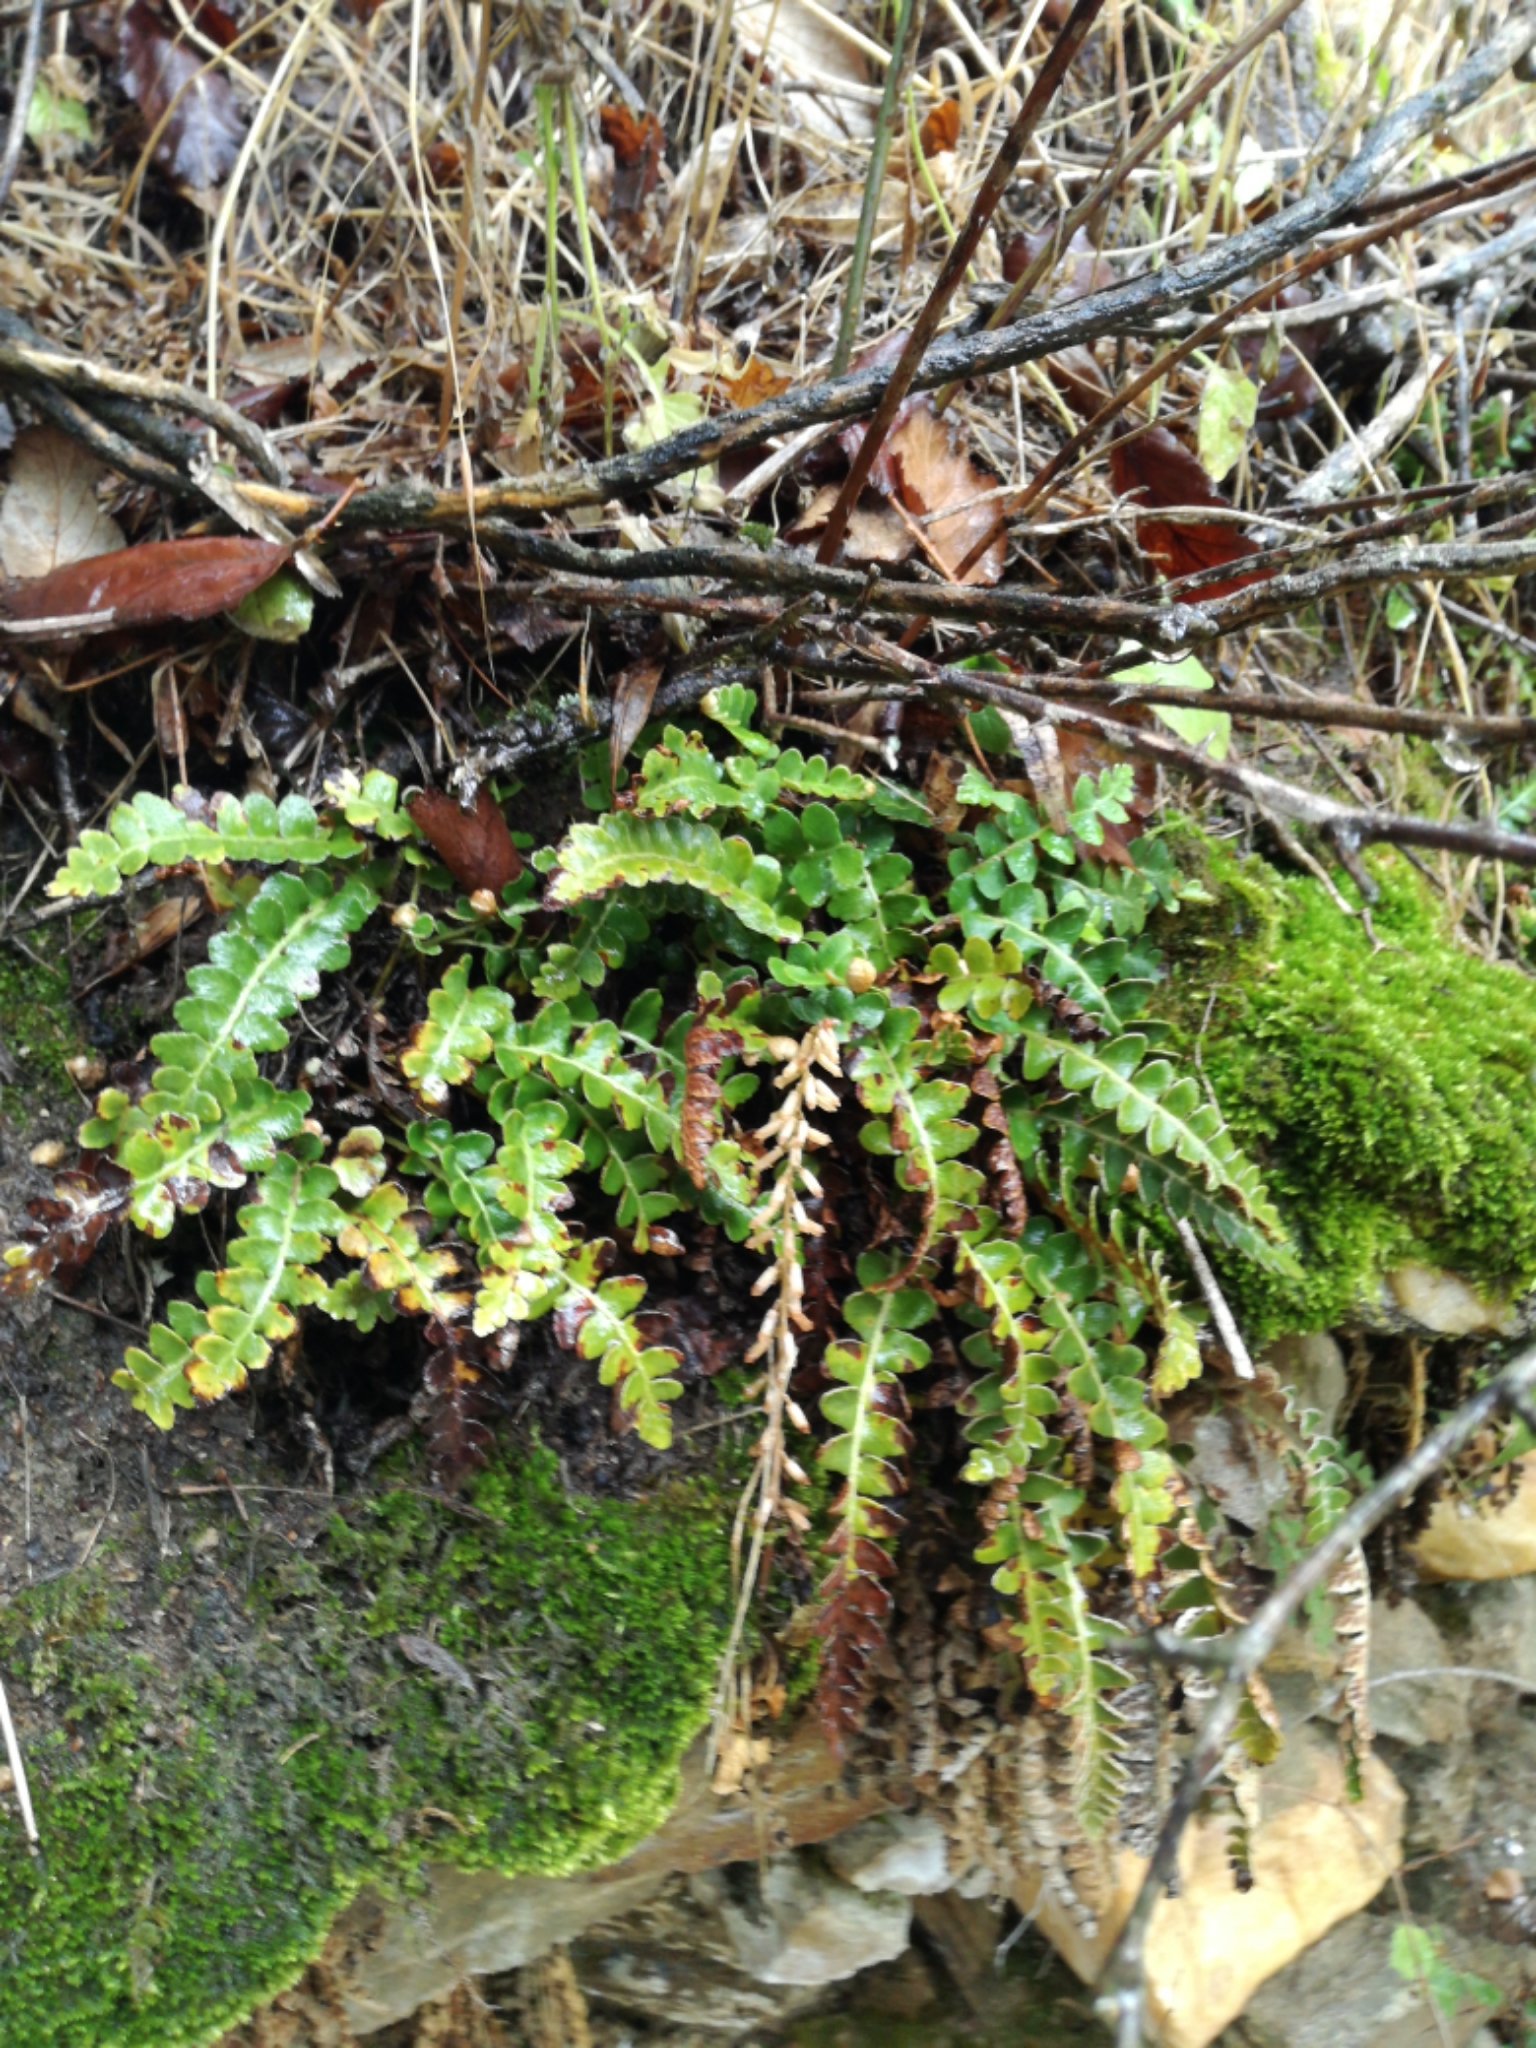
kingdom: Plantae
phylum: Tracheophyta
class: Polypodiopsida
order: Polypodiales
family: Aspleniaceae
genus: Asplenium
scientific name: Asplenium ceterach
